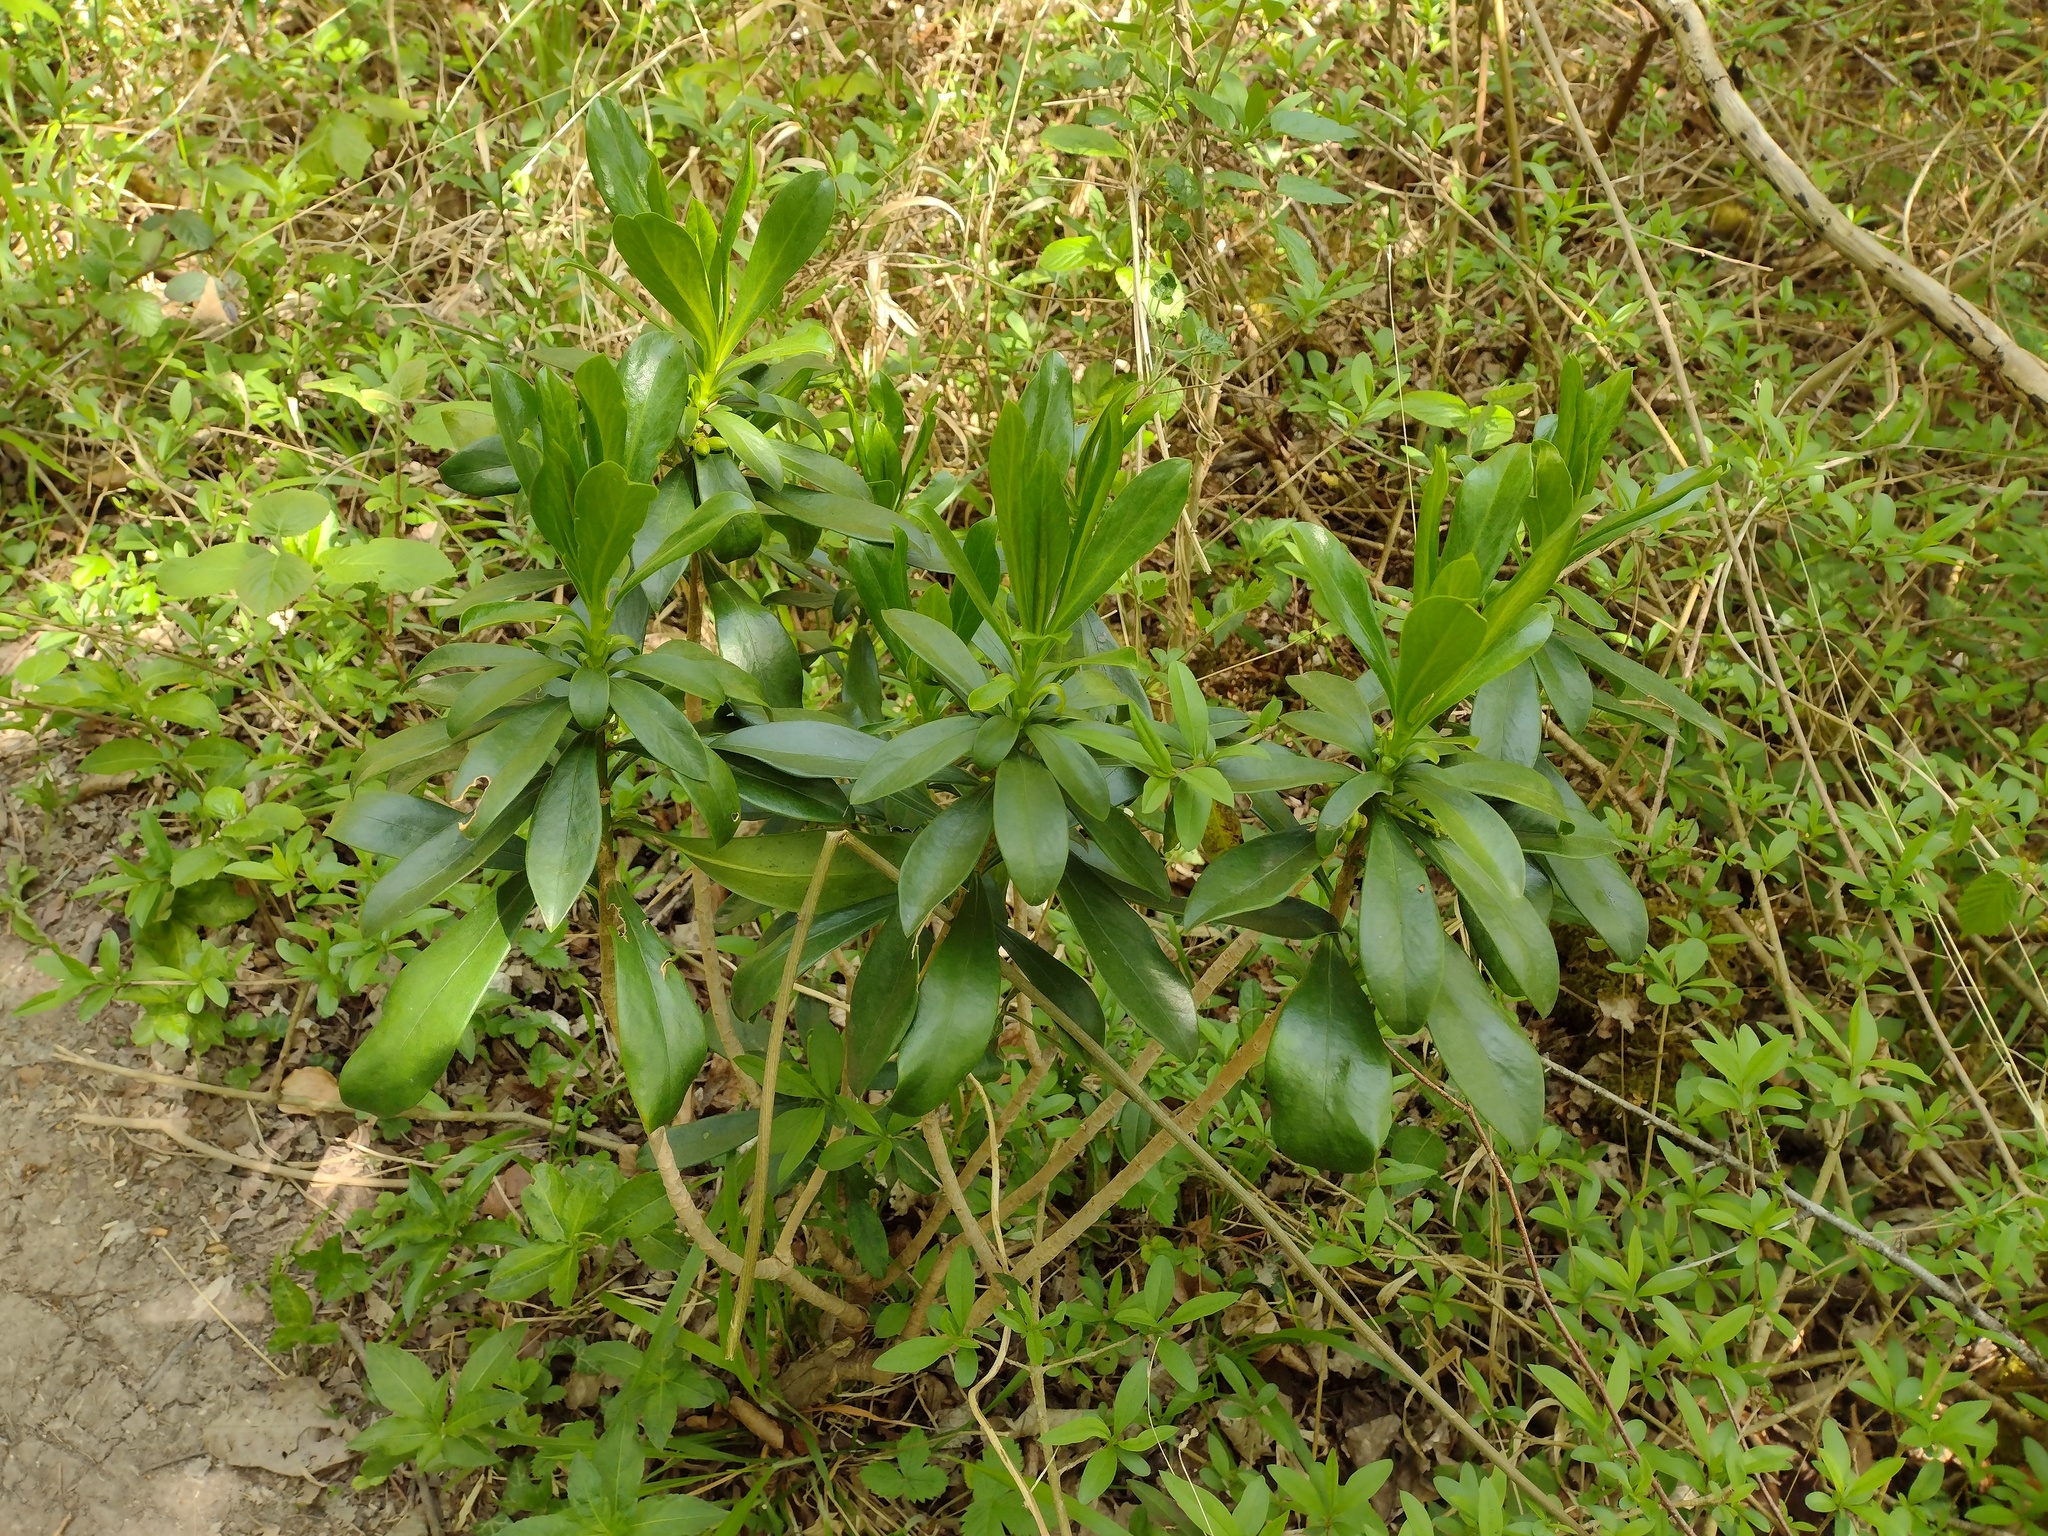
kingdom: Plantae
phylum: Tracheophyta
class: Magnoliopsida
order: Malvales
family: Thymelaeaceae
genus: Daphne
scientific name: Daphne laureola
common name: Spurge-laurel
